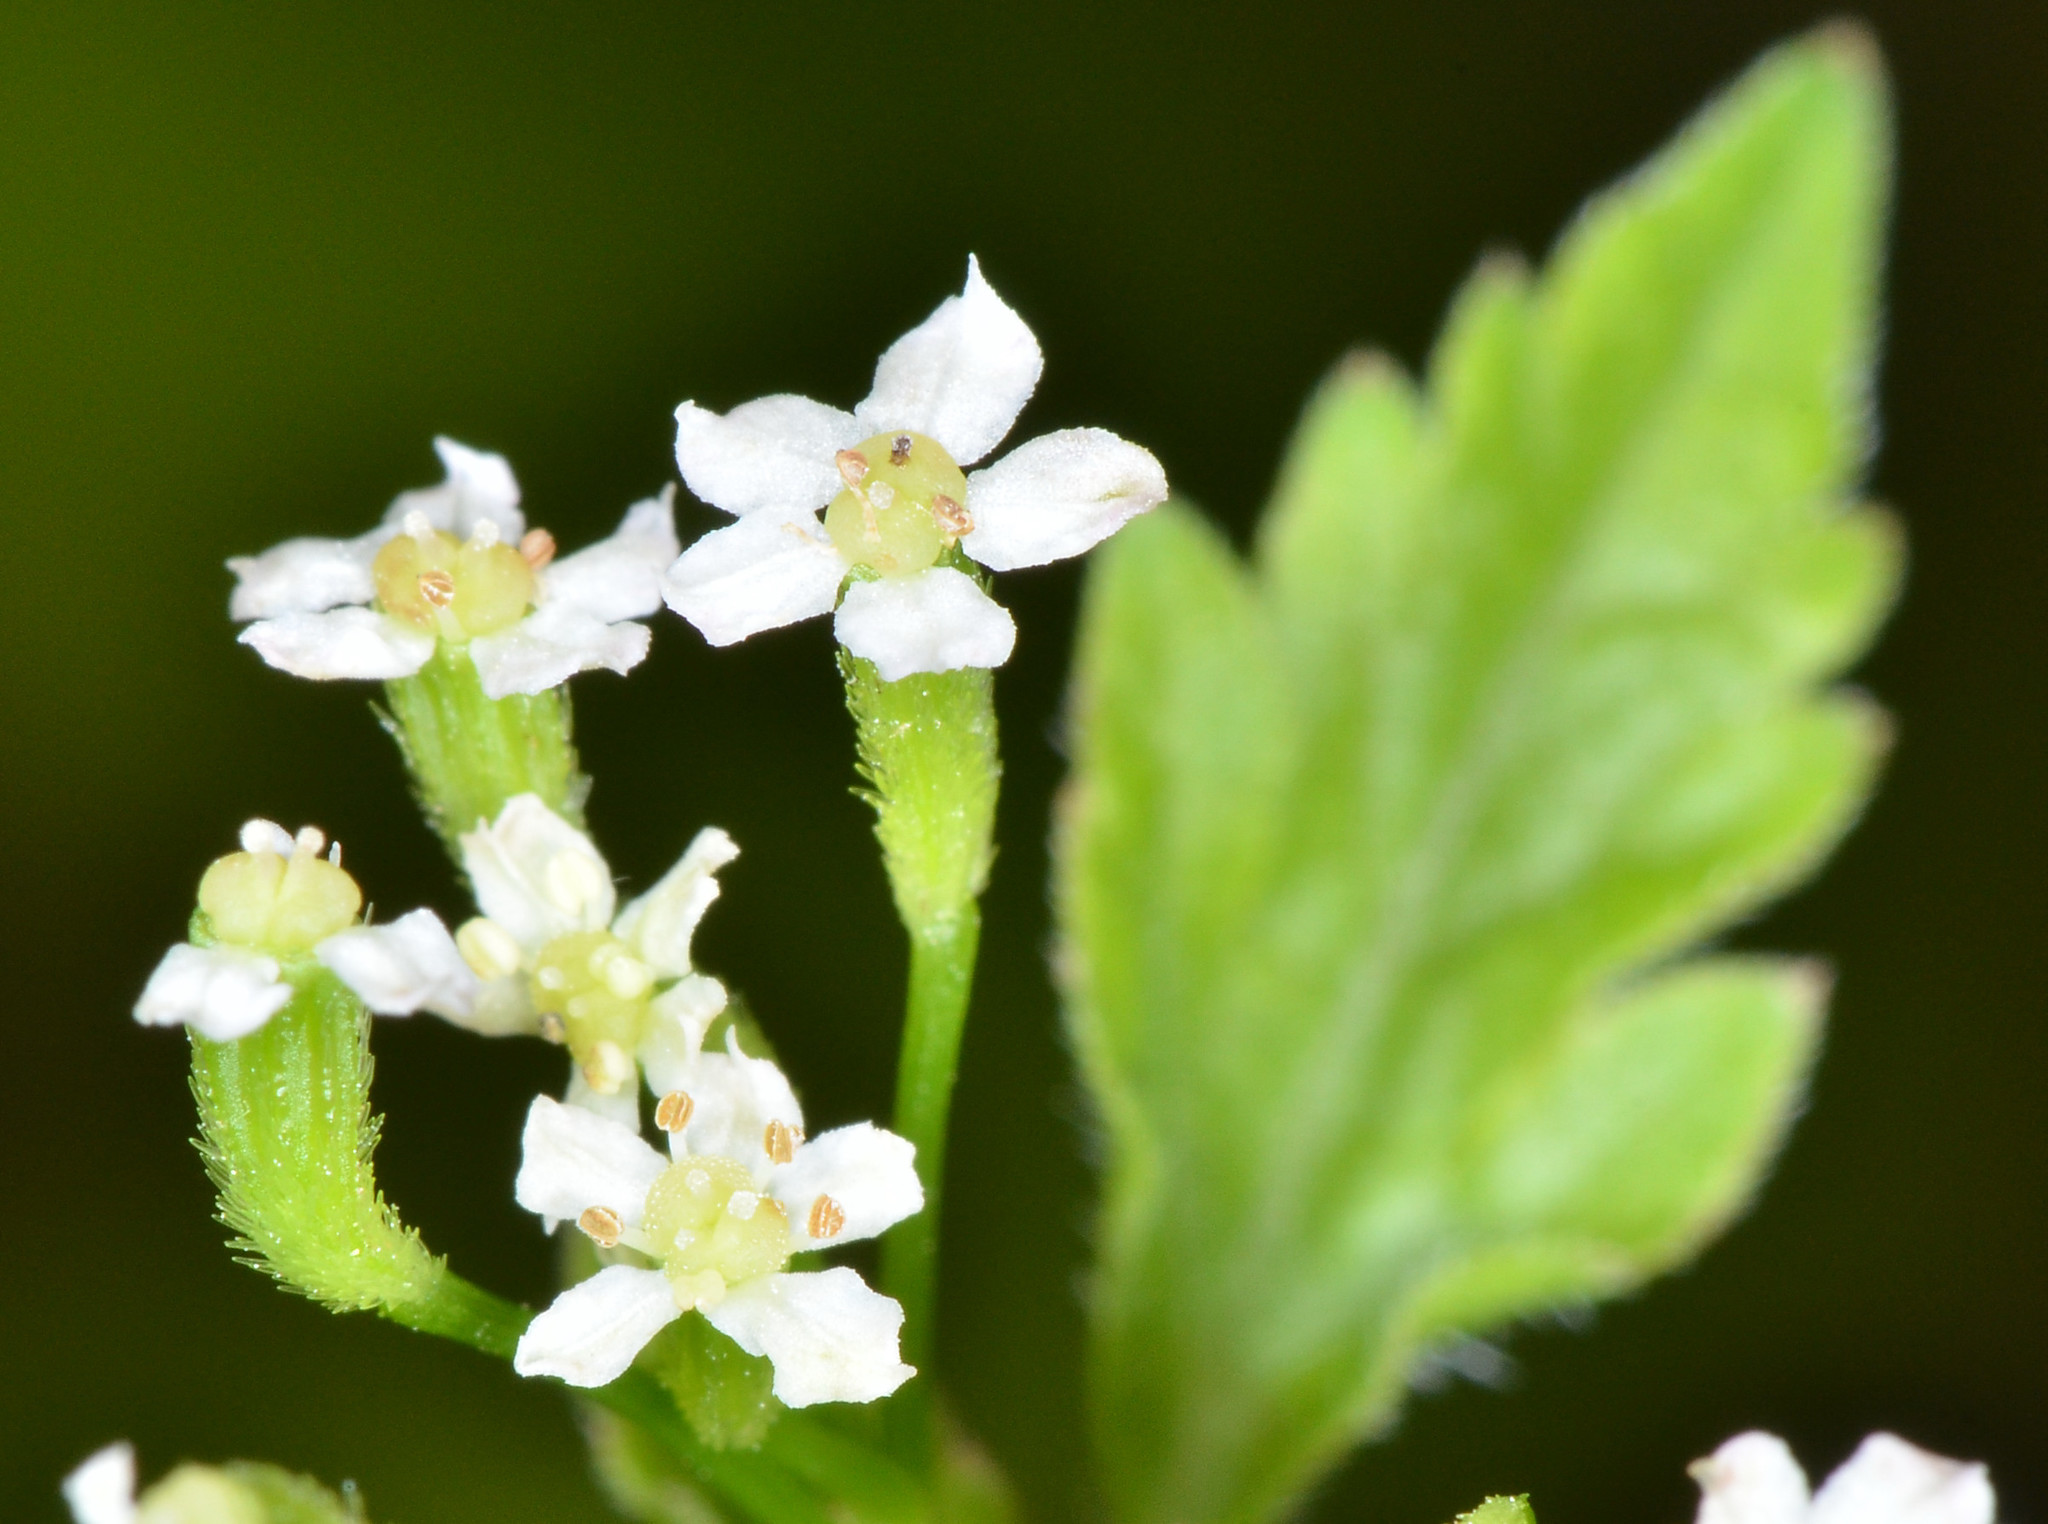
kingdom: Plantae
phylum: Tracheophyta
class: Magnoliopsida
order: Apiales
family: Apiaceae
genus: Osmorhiza
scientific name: Osmorhiza berteroi
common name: Mountain sweet cicely
